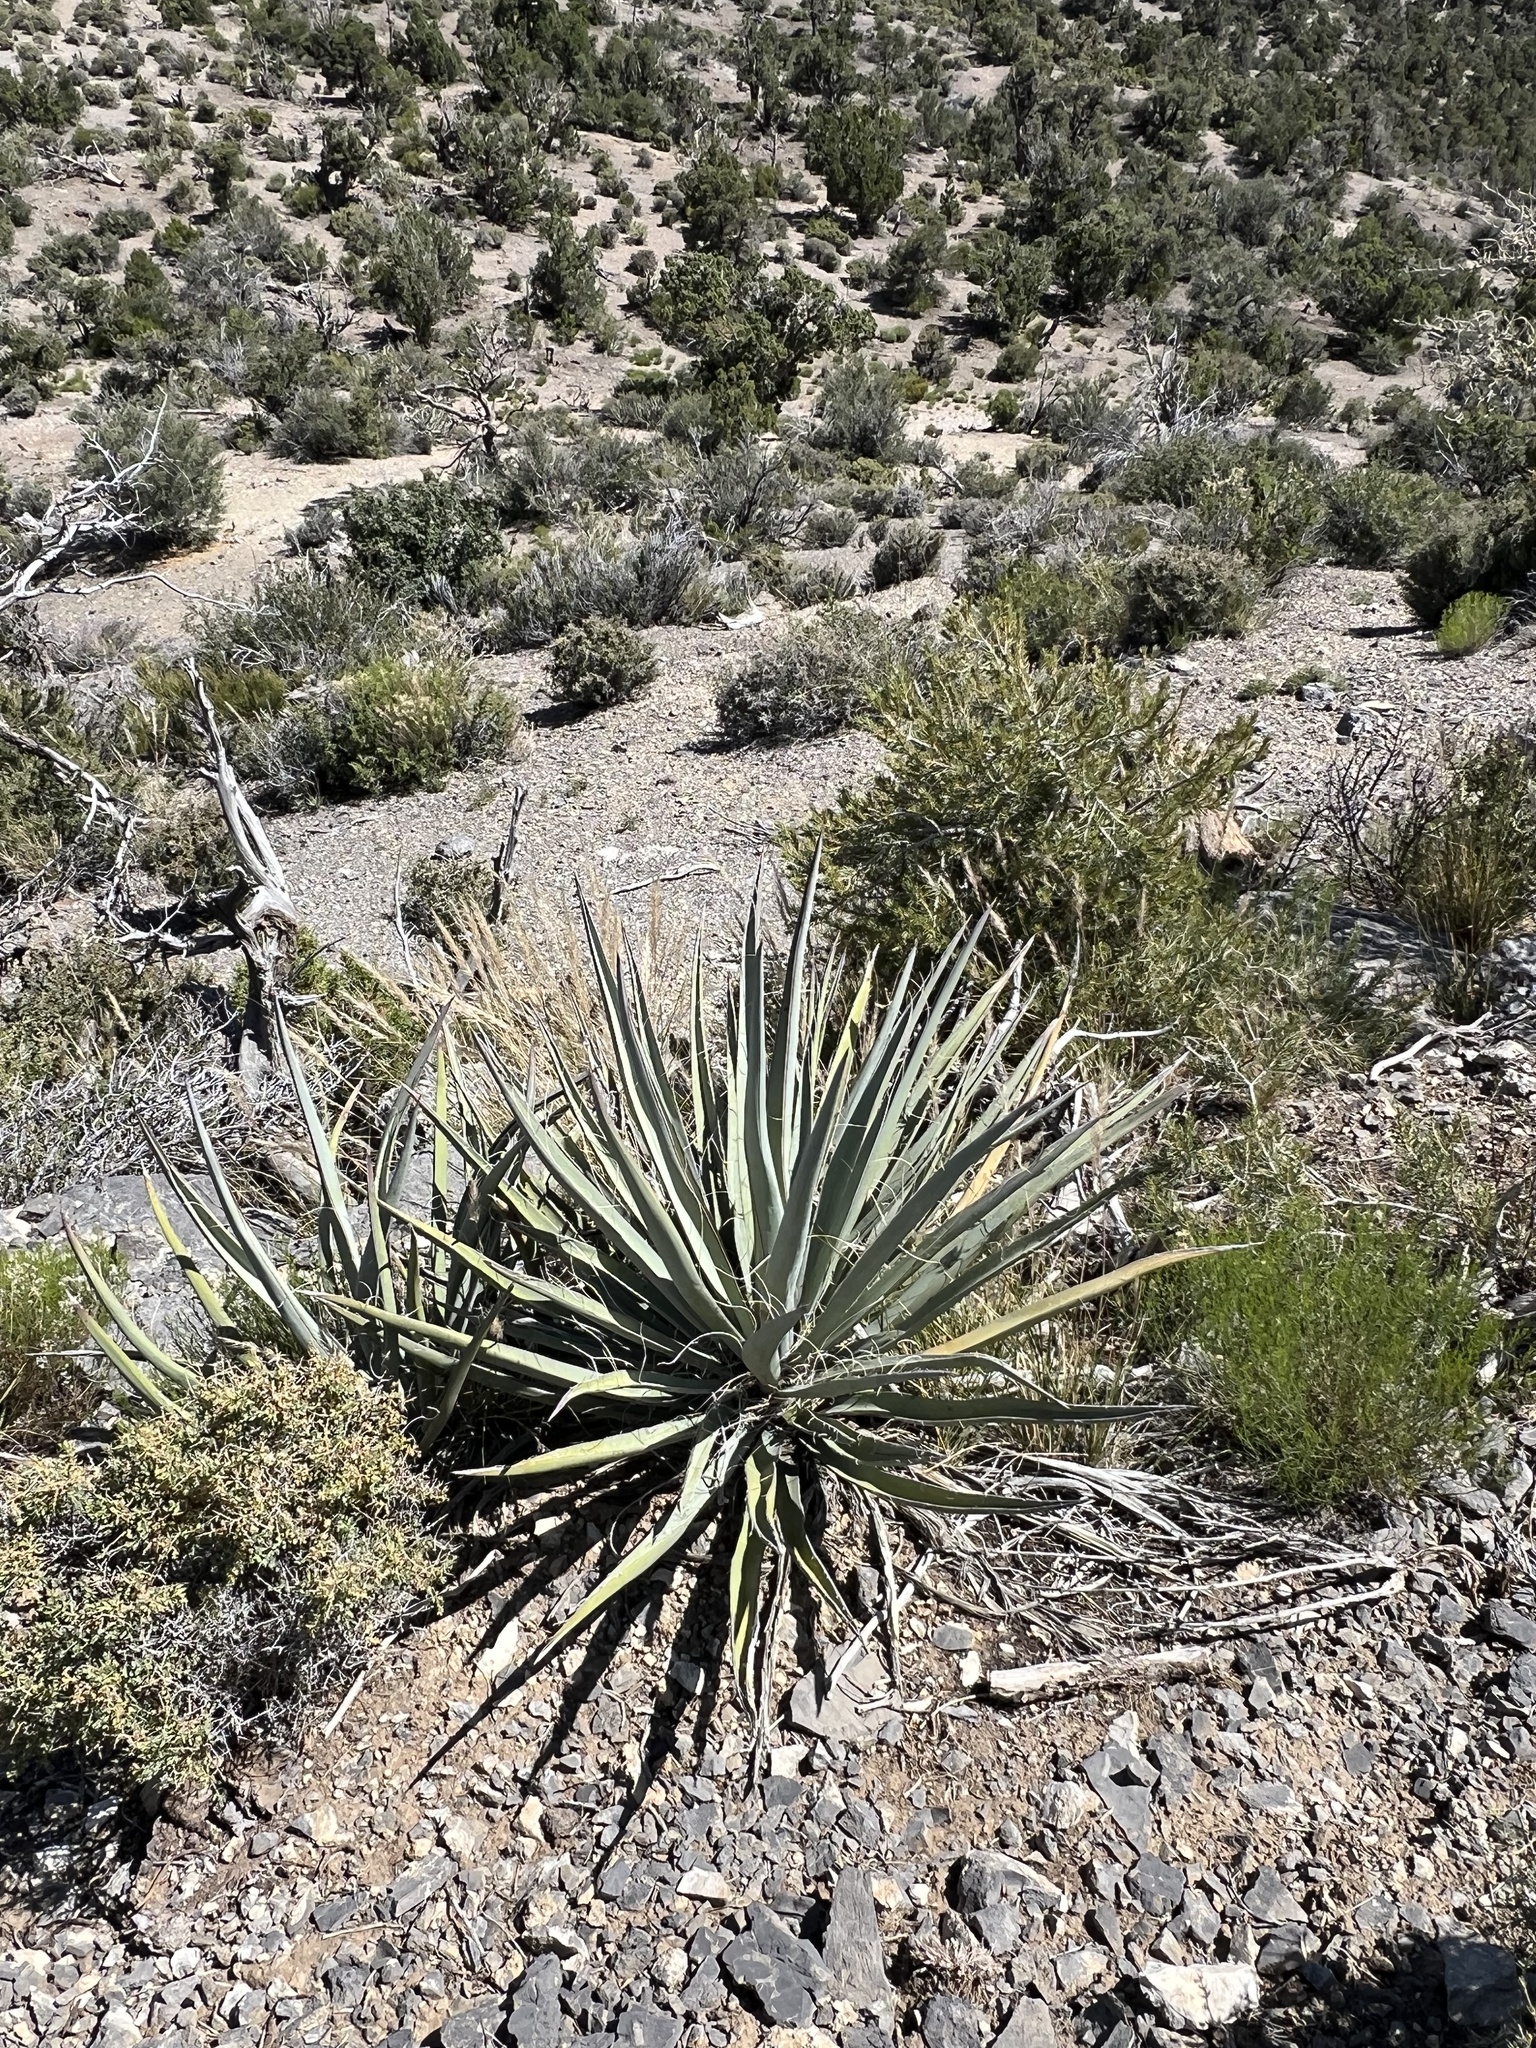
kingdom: Plantae
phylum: Tracheophyta
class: Liliopsida
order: Asparagales
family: Asparagaceae
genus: Yucca
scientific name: Yucca baccata
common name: Banana yucca
